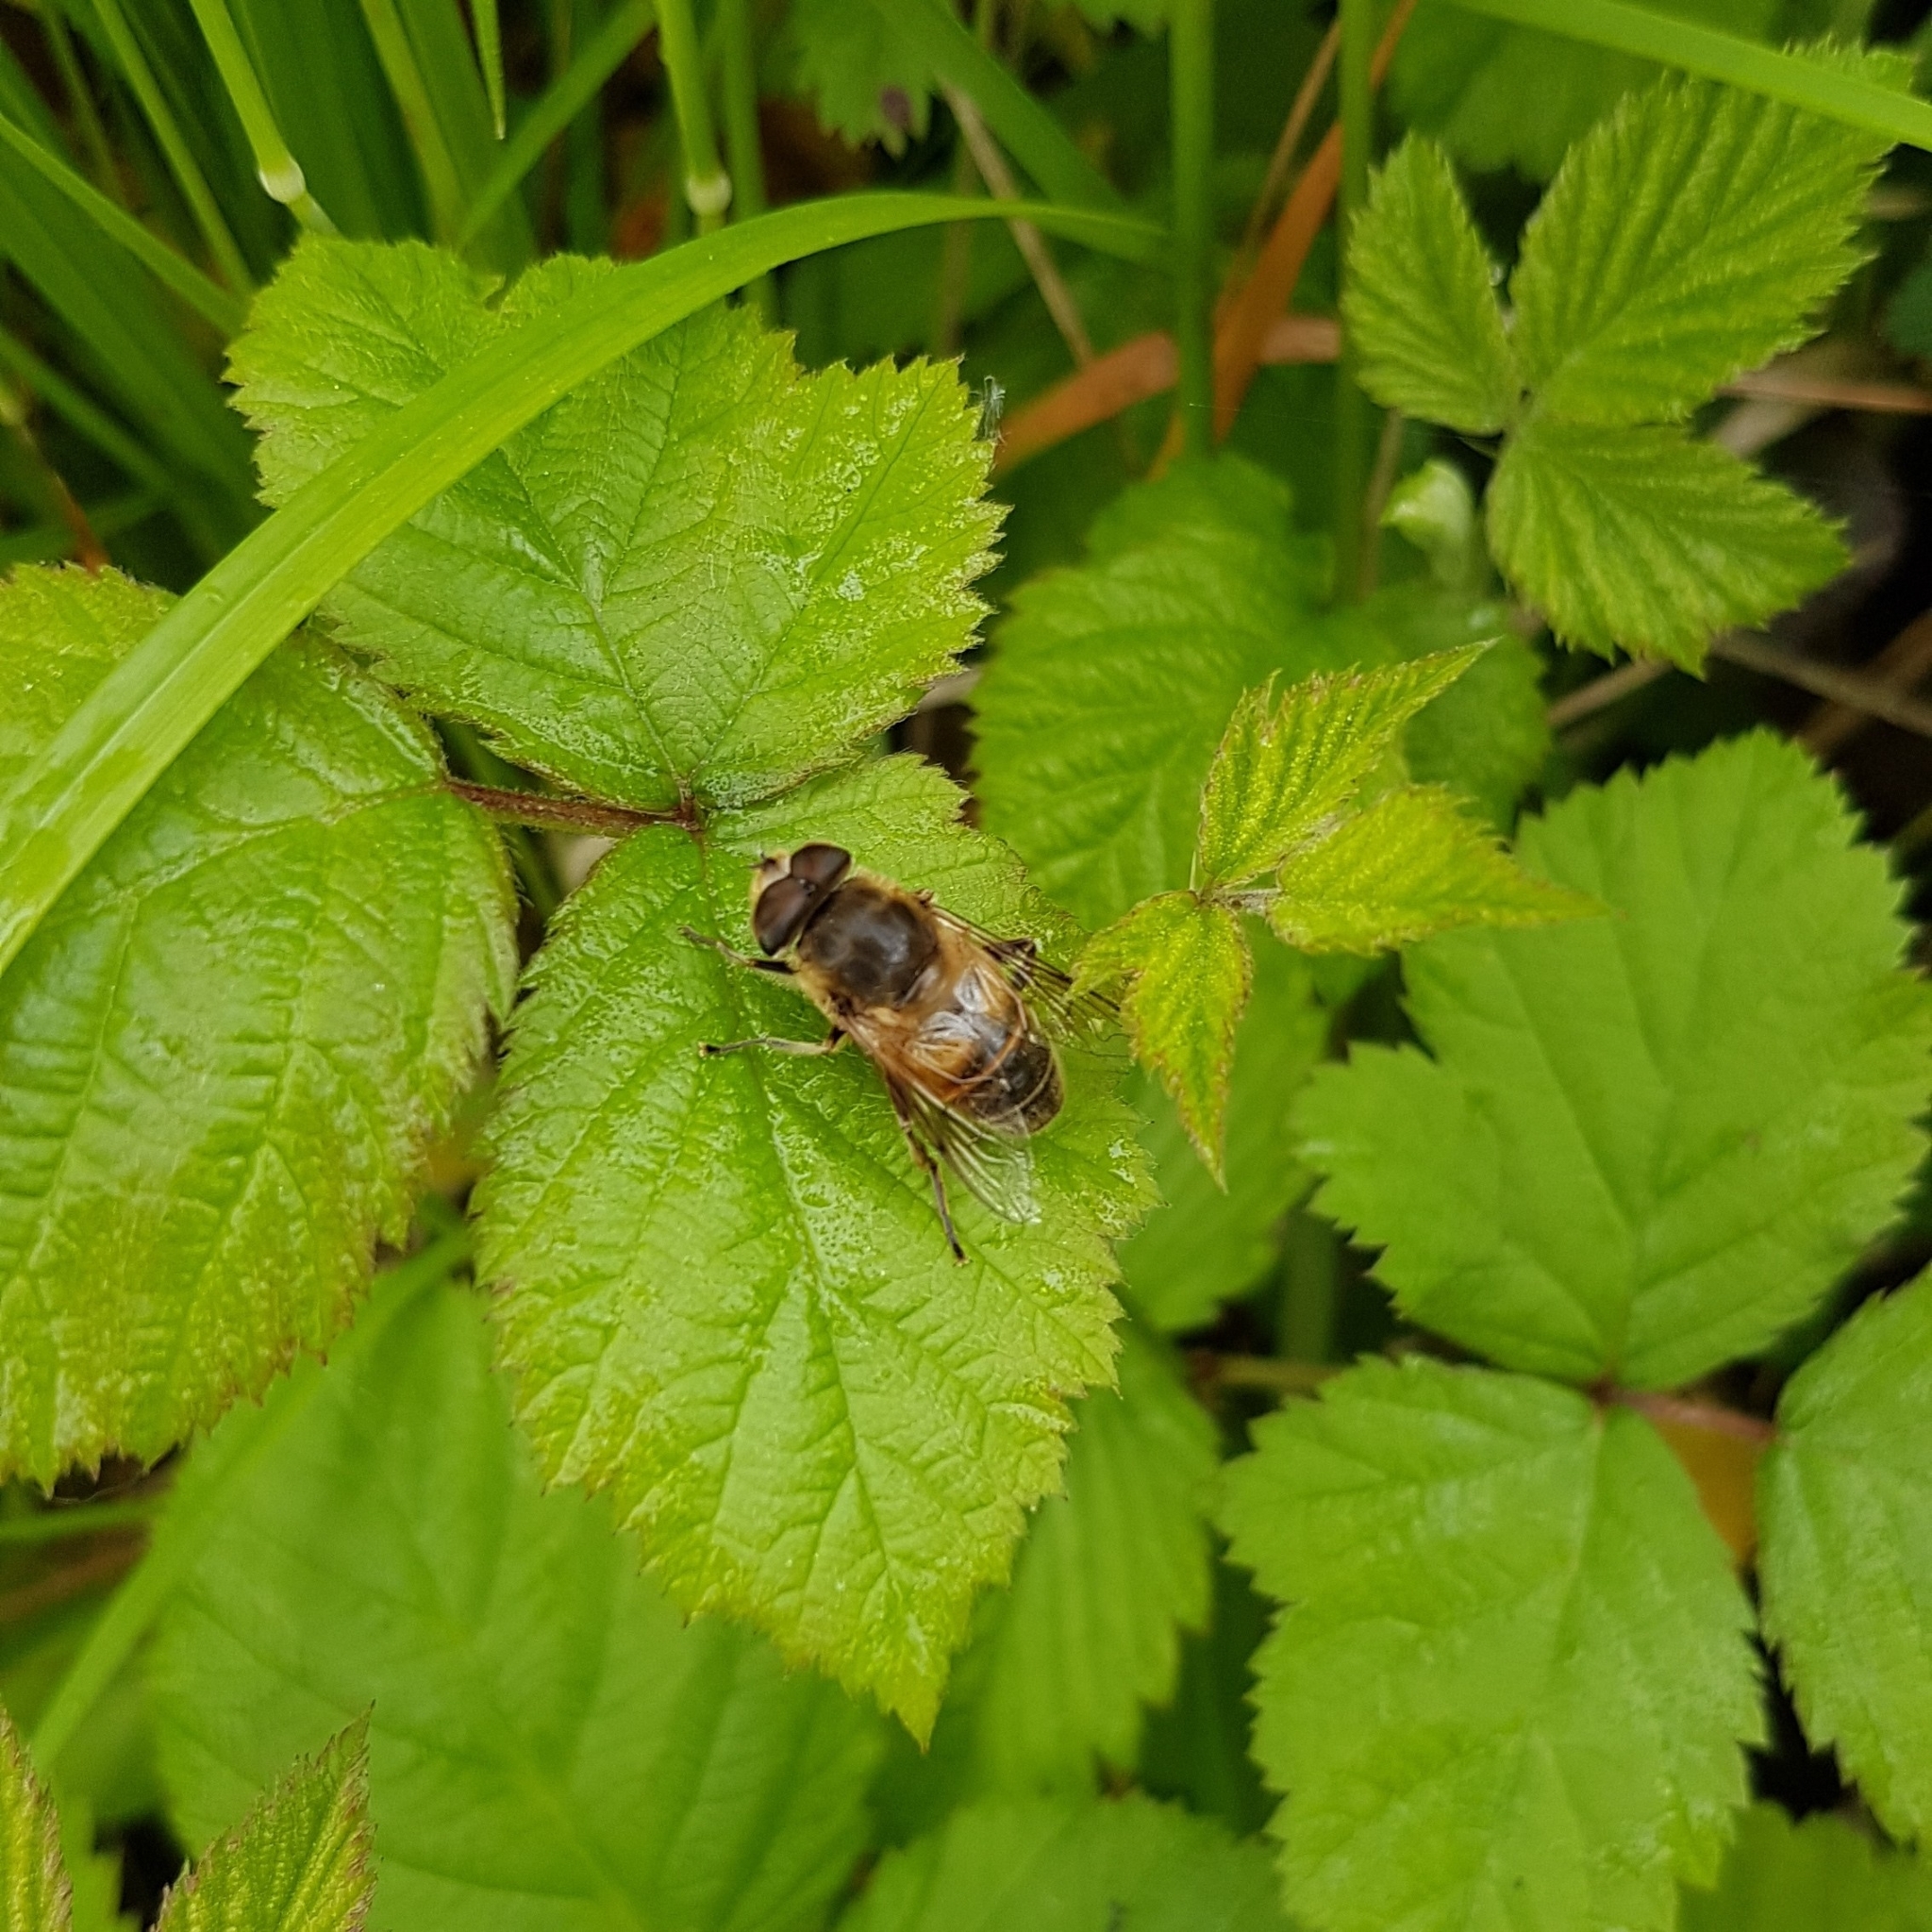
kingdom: Animalia
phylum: Arthropoda
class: Insecta
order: Diptera
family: Syrphidae
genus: Eristalis
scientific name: Eristalis tenax
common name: Drone fly
